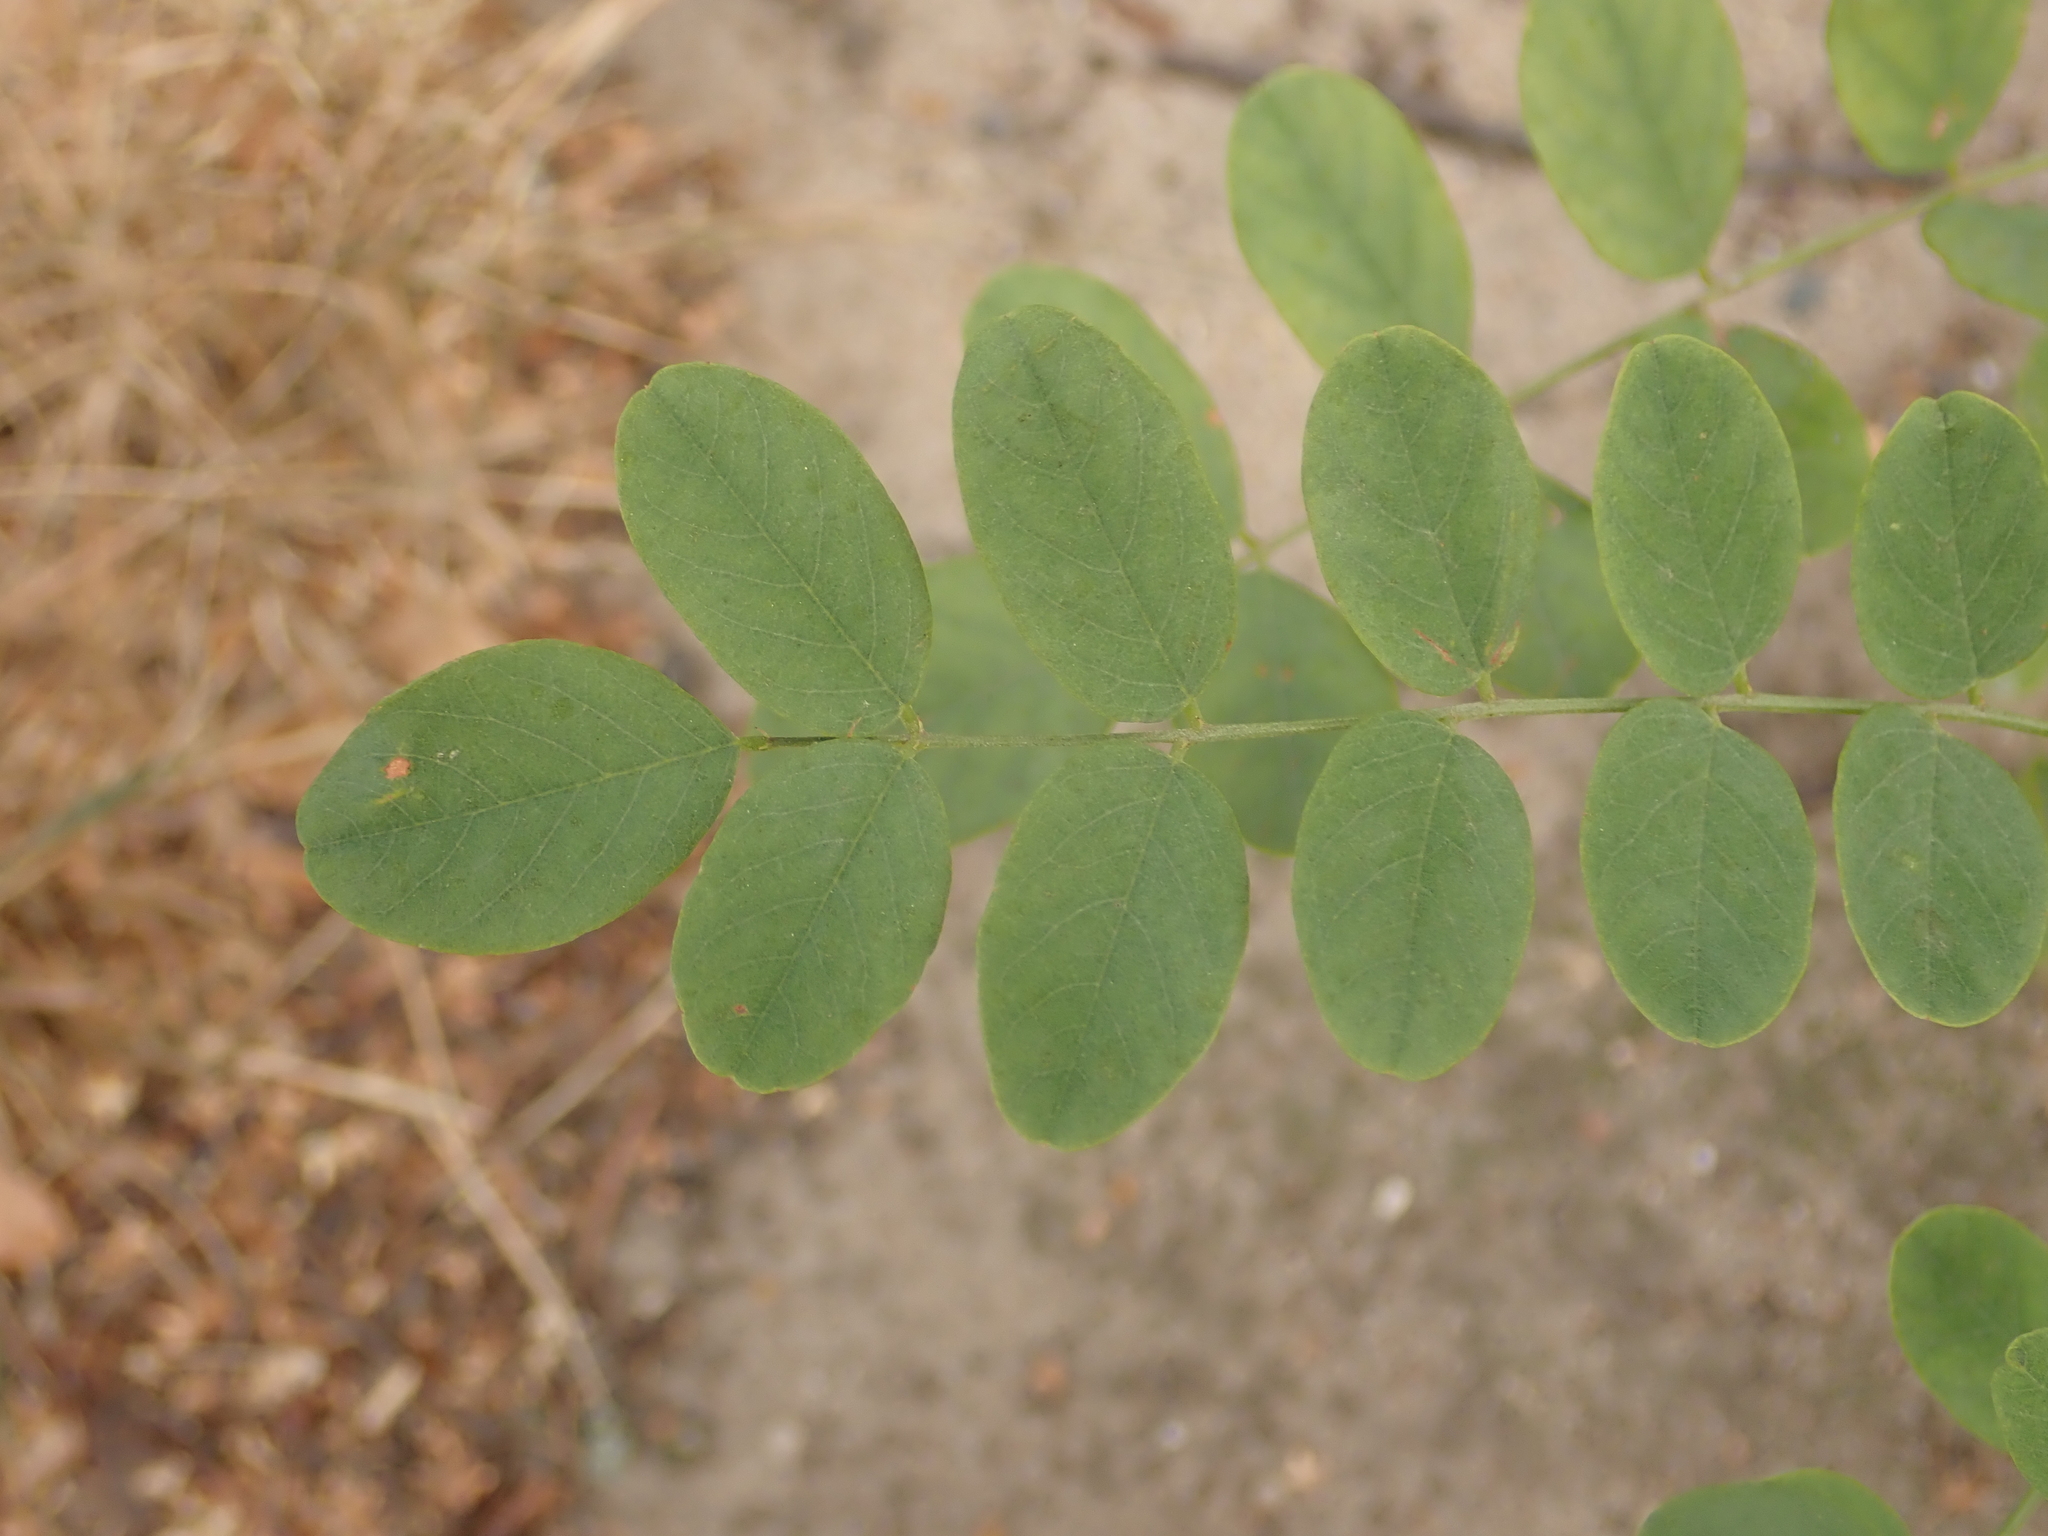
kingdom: Plantae
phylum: Tracheophyta
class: Magnoliopsida
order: Fabales
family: Fabaceae
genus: Robinia
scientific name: Robinia pseudoacacia
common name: Black locust
